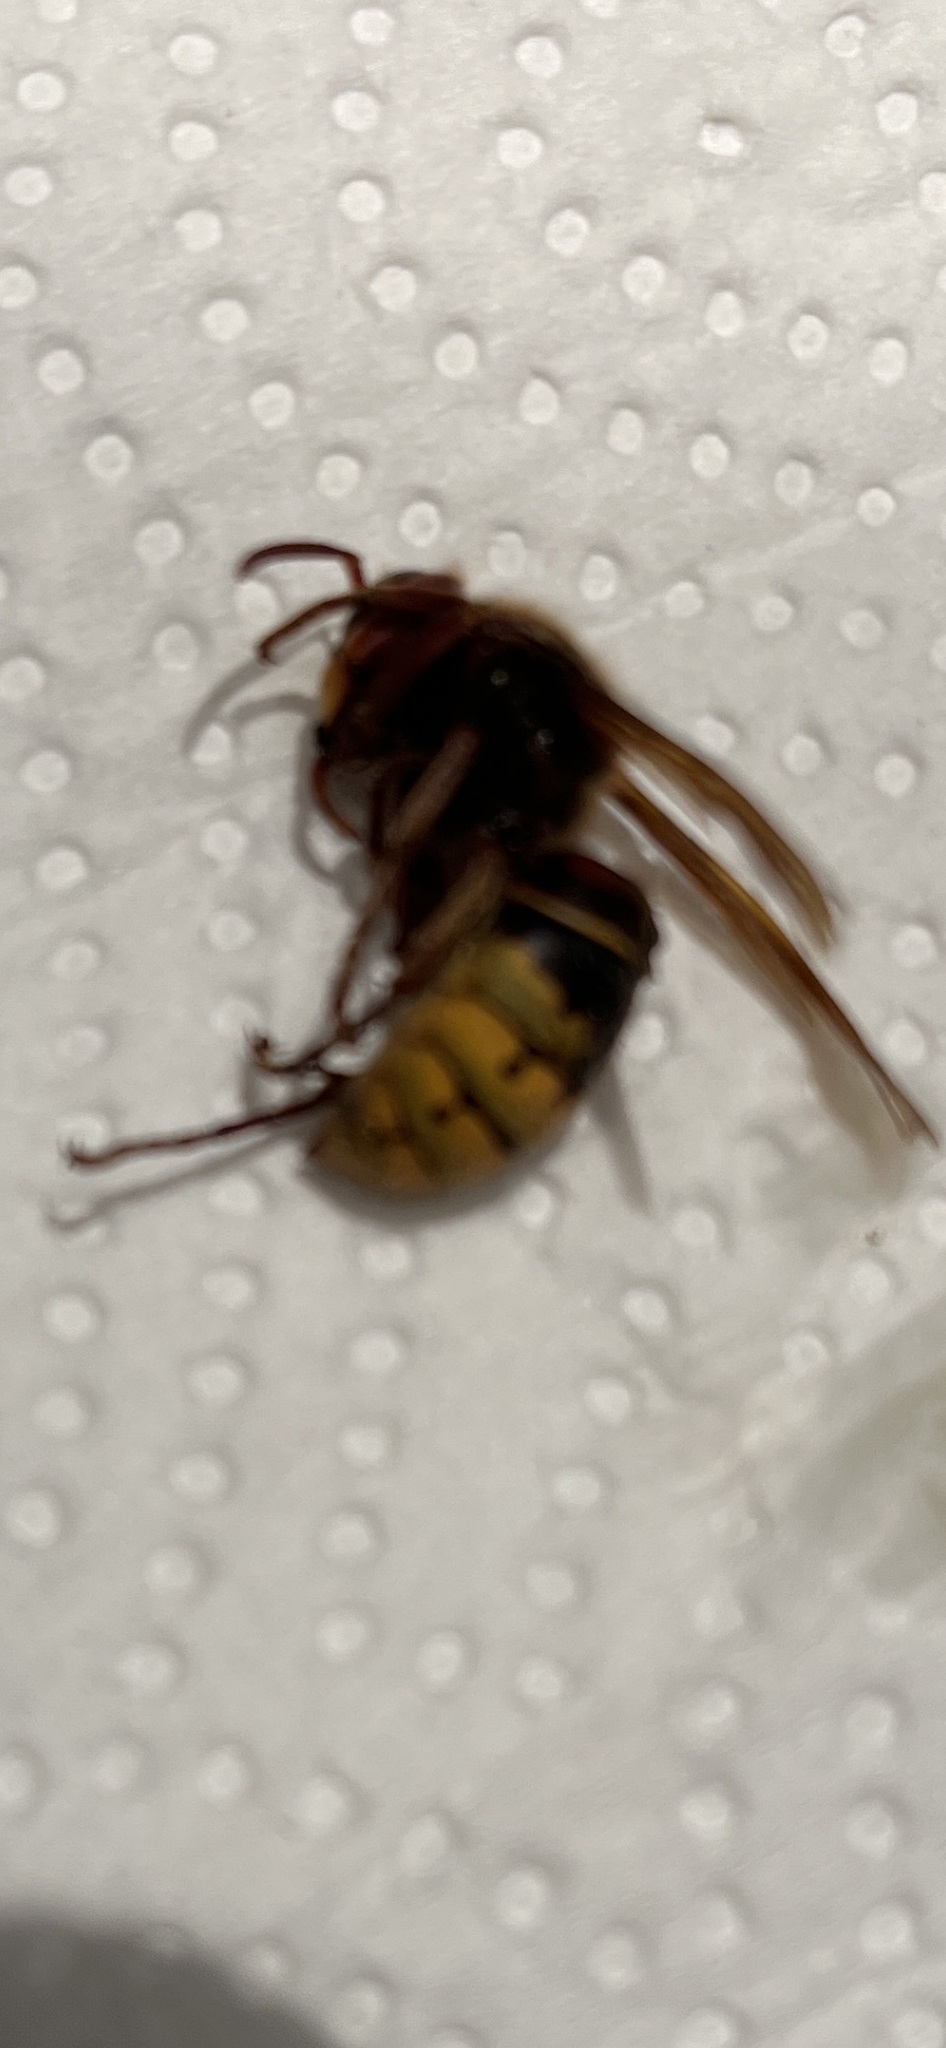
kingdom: Animalia
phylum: Arthropoda
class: Insecta
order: Hymenoptera
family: Vespidae
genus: Vespa
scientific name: Vespa crabro
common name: Hornet
